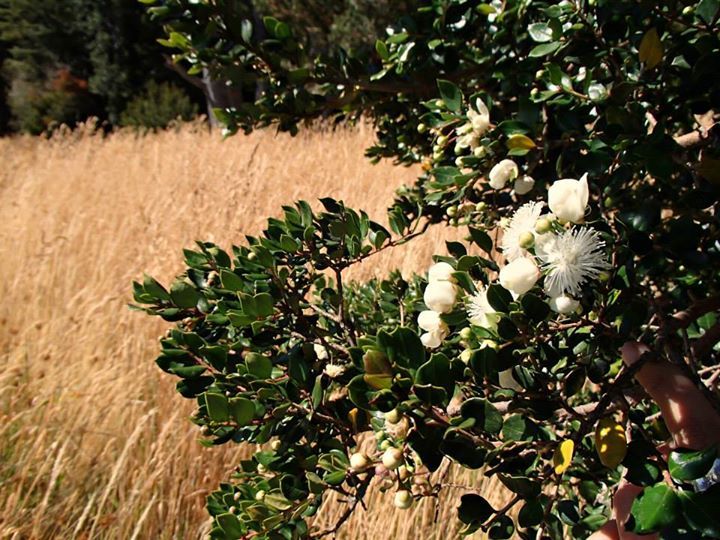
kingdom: Plantae
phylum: Tracheophyta
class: Magnoliopsida
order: Myrtales
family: Myrtaceae
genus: Luma
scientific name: Luma apiculata
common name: Chilean myrtle
